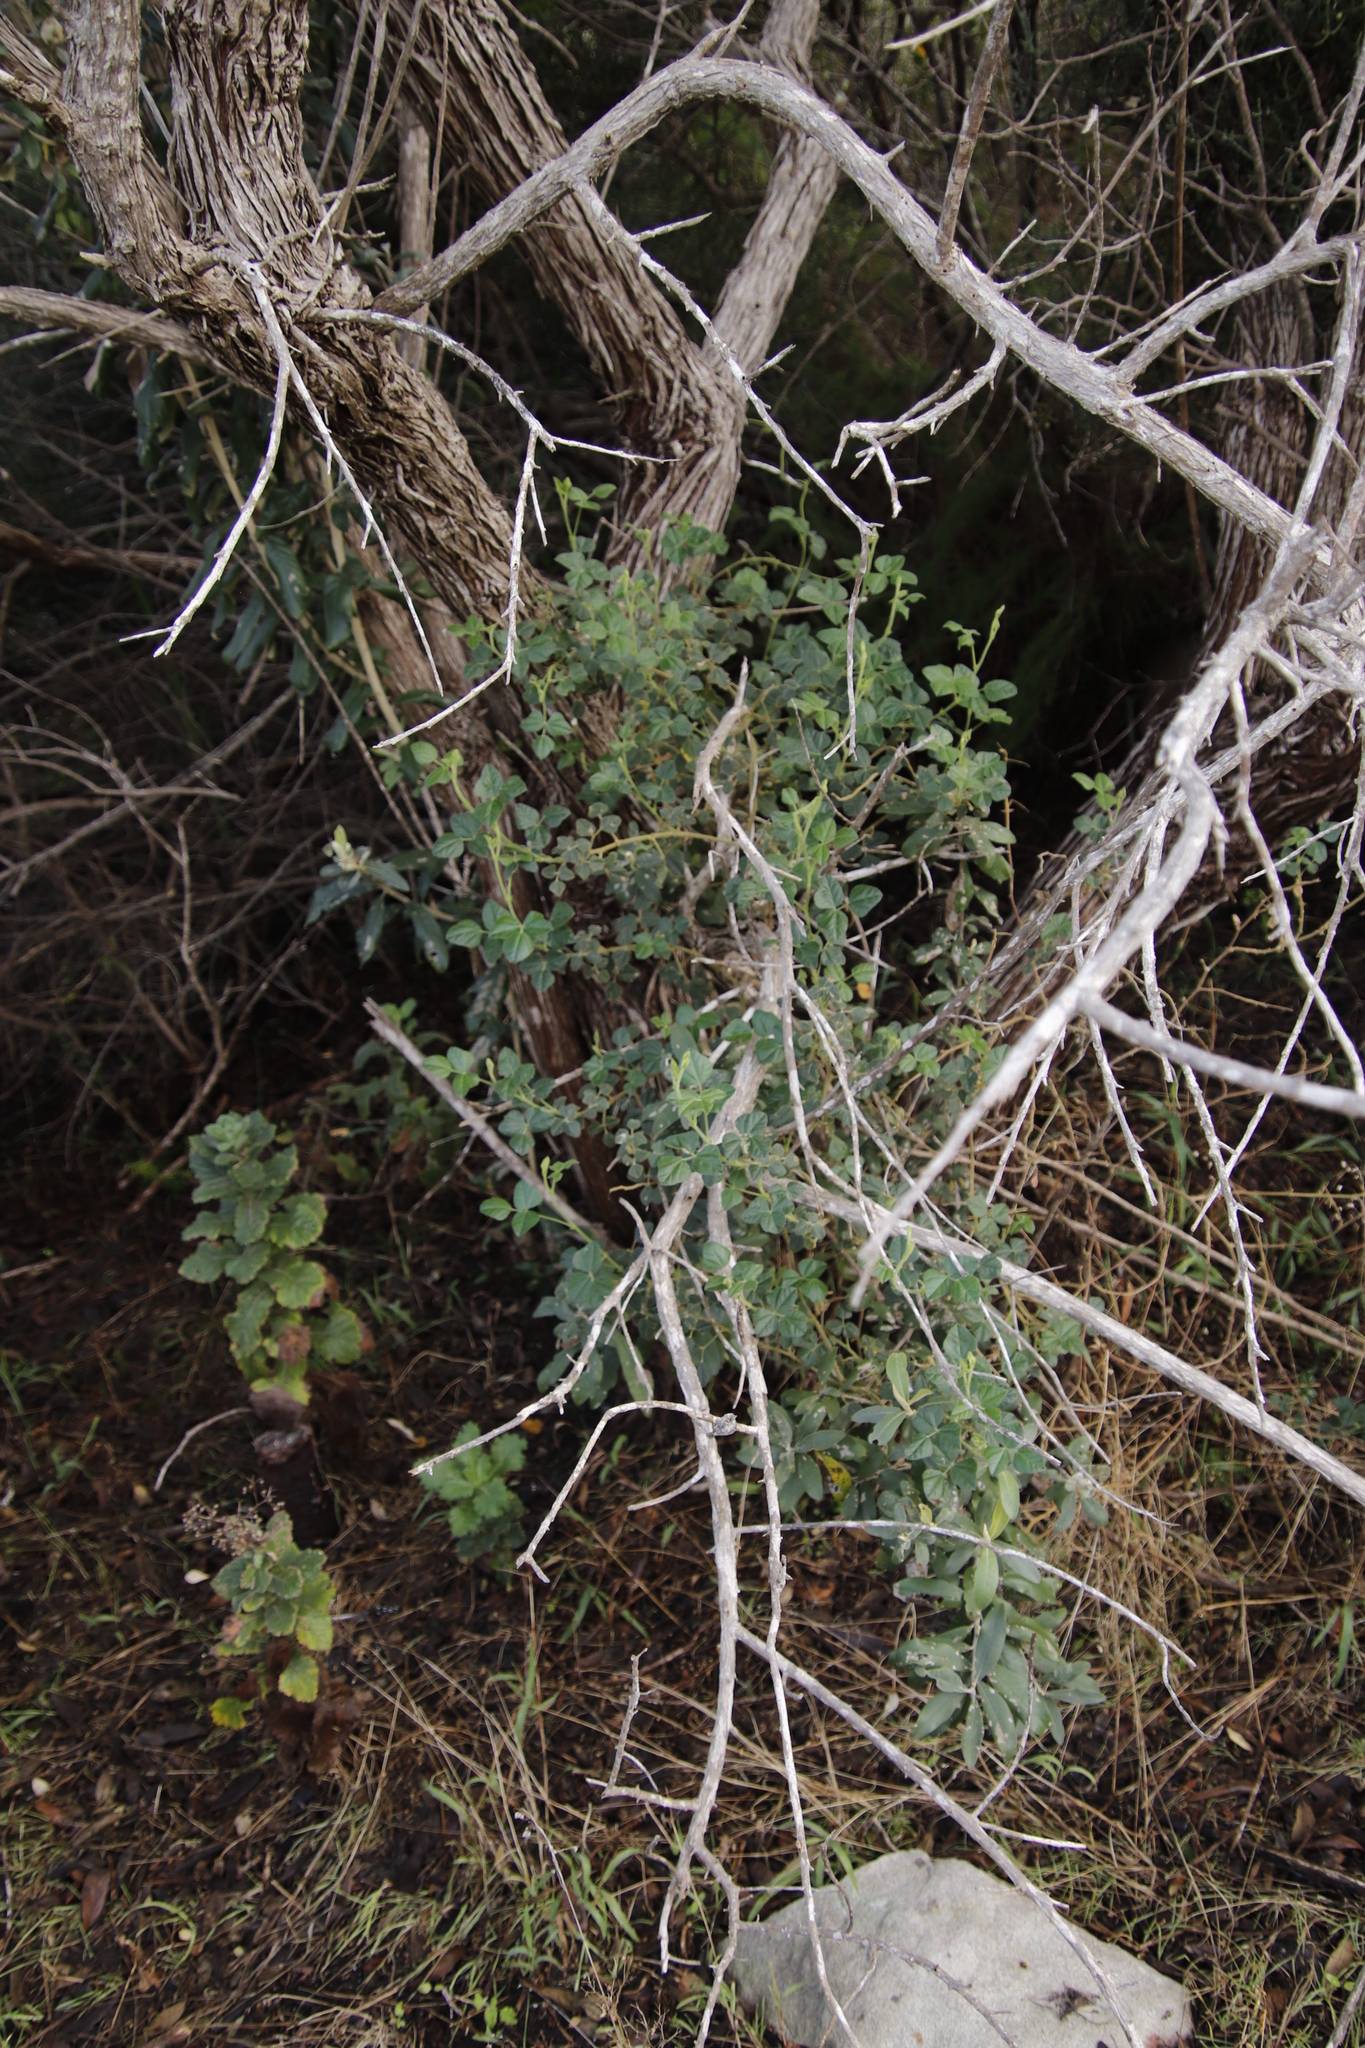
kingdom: Plantae
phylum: Tracheophyta
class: Magnoliopsida
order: Fabales
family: Fabaceae
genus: Bolusafra
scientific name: Bolusafra bituminosa
